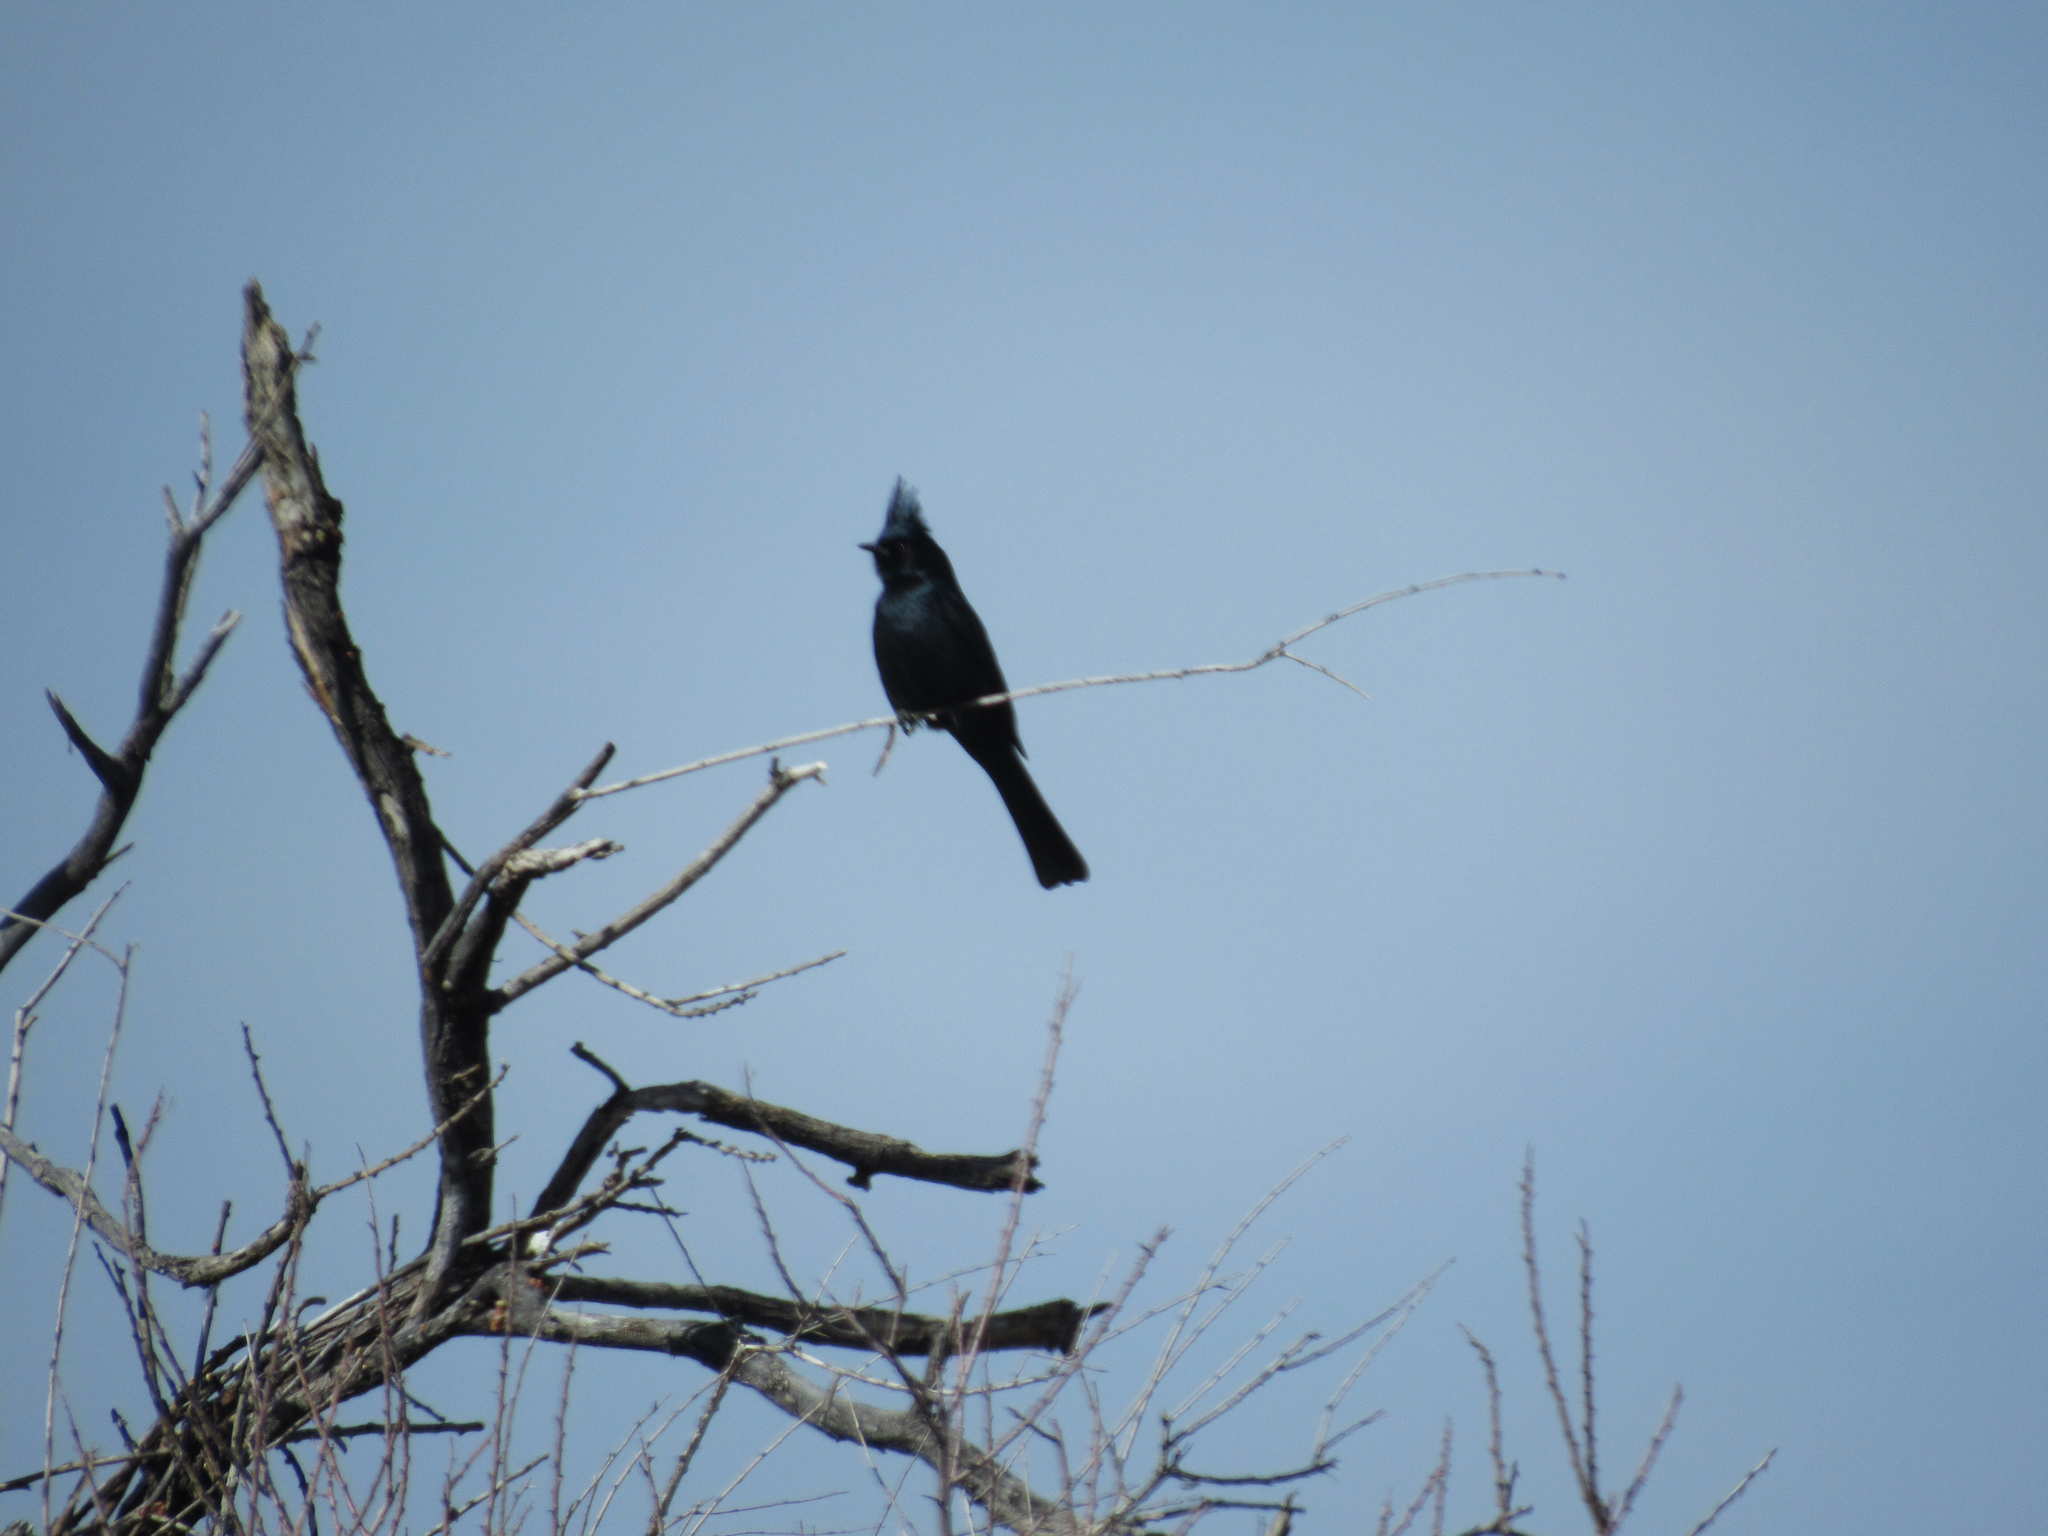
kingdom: Animalia
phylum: Chordata
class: Aves
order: Passeriformes
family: Ptilogonatidae
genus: Phainopepla
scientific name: Phainopepla nitens
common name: Phainopepla
